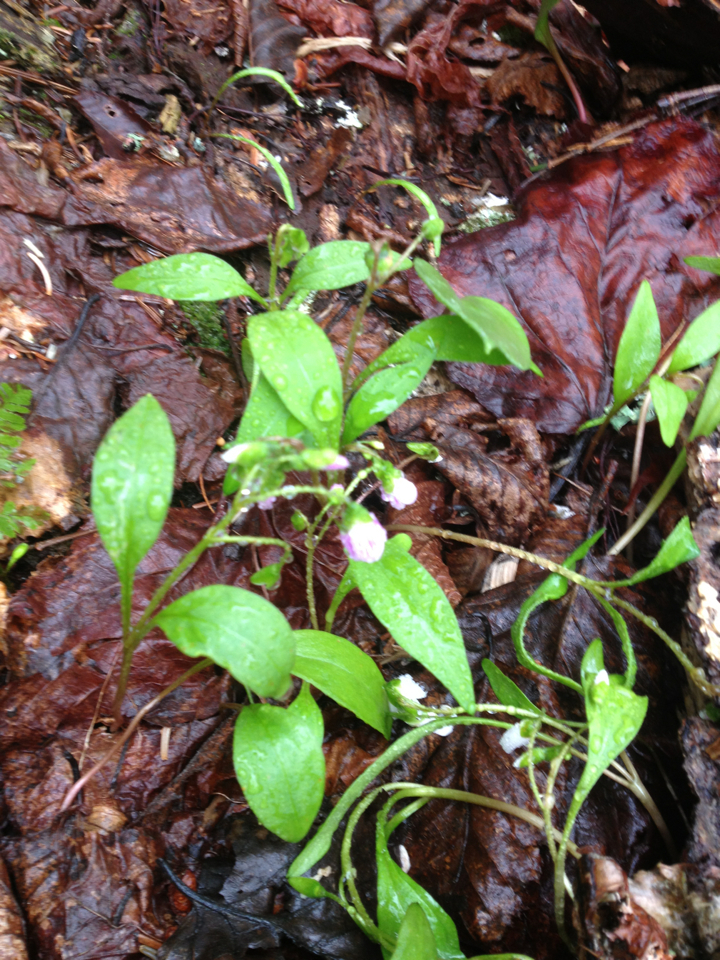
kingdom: Plantae
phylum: Tracheophyta
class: Magnoliopsida
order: Caryophyllales
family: Montiaceae
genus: Claytonia
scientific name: Claytonia caroliniana
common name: Carolina spring beauty
